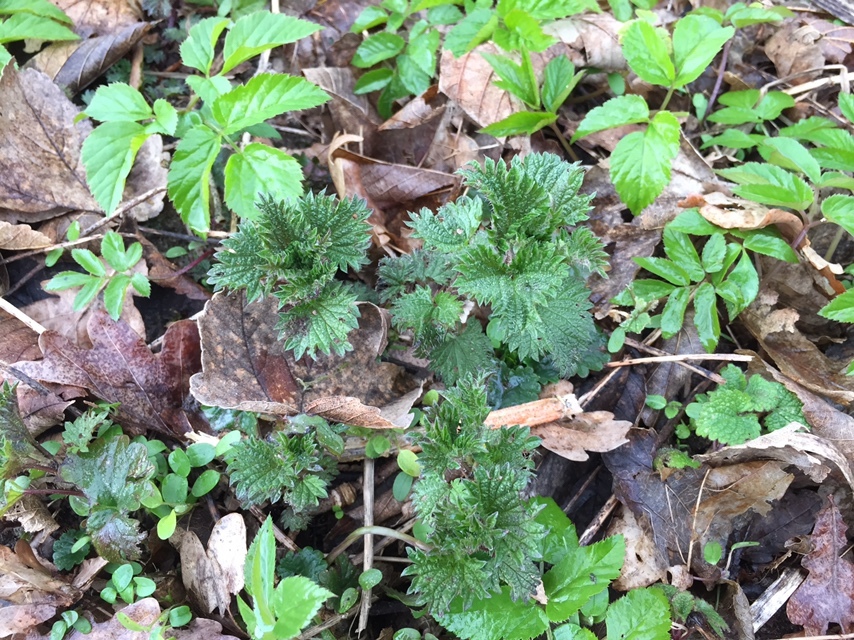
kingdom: Plantae
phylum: Tracheophyta
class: Magnoliopsida
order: Rosales
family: Urticaceae
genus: Urtica
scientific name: Urtica dioica
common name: Common nettle
